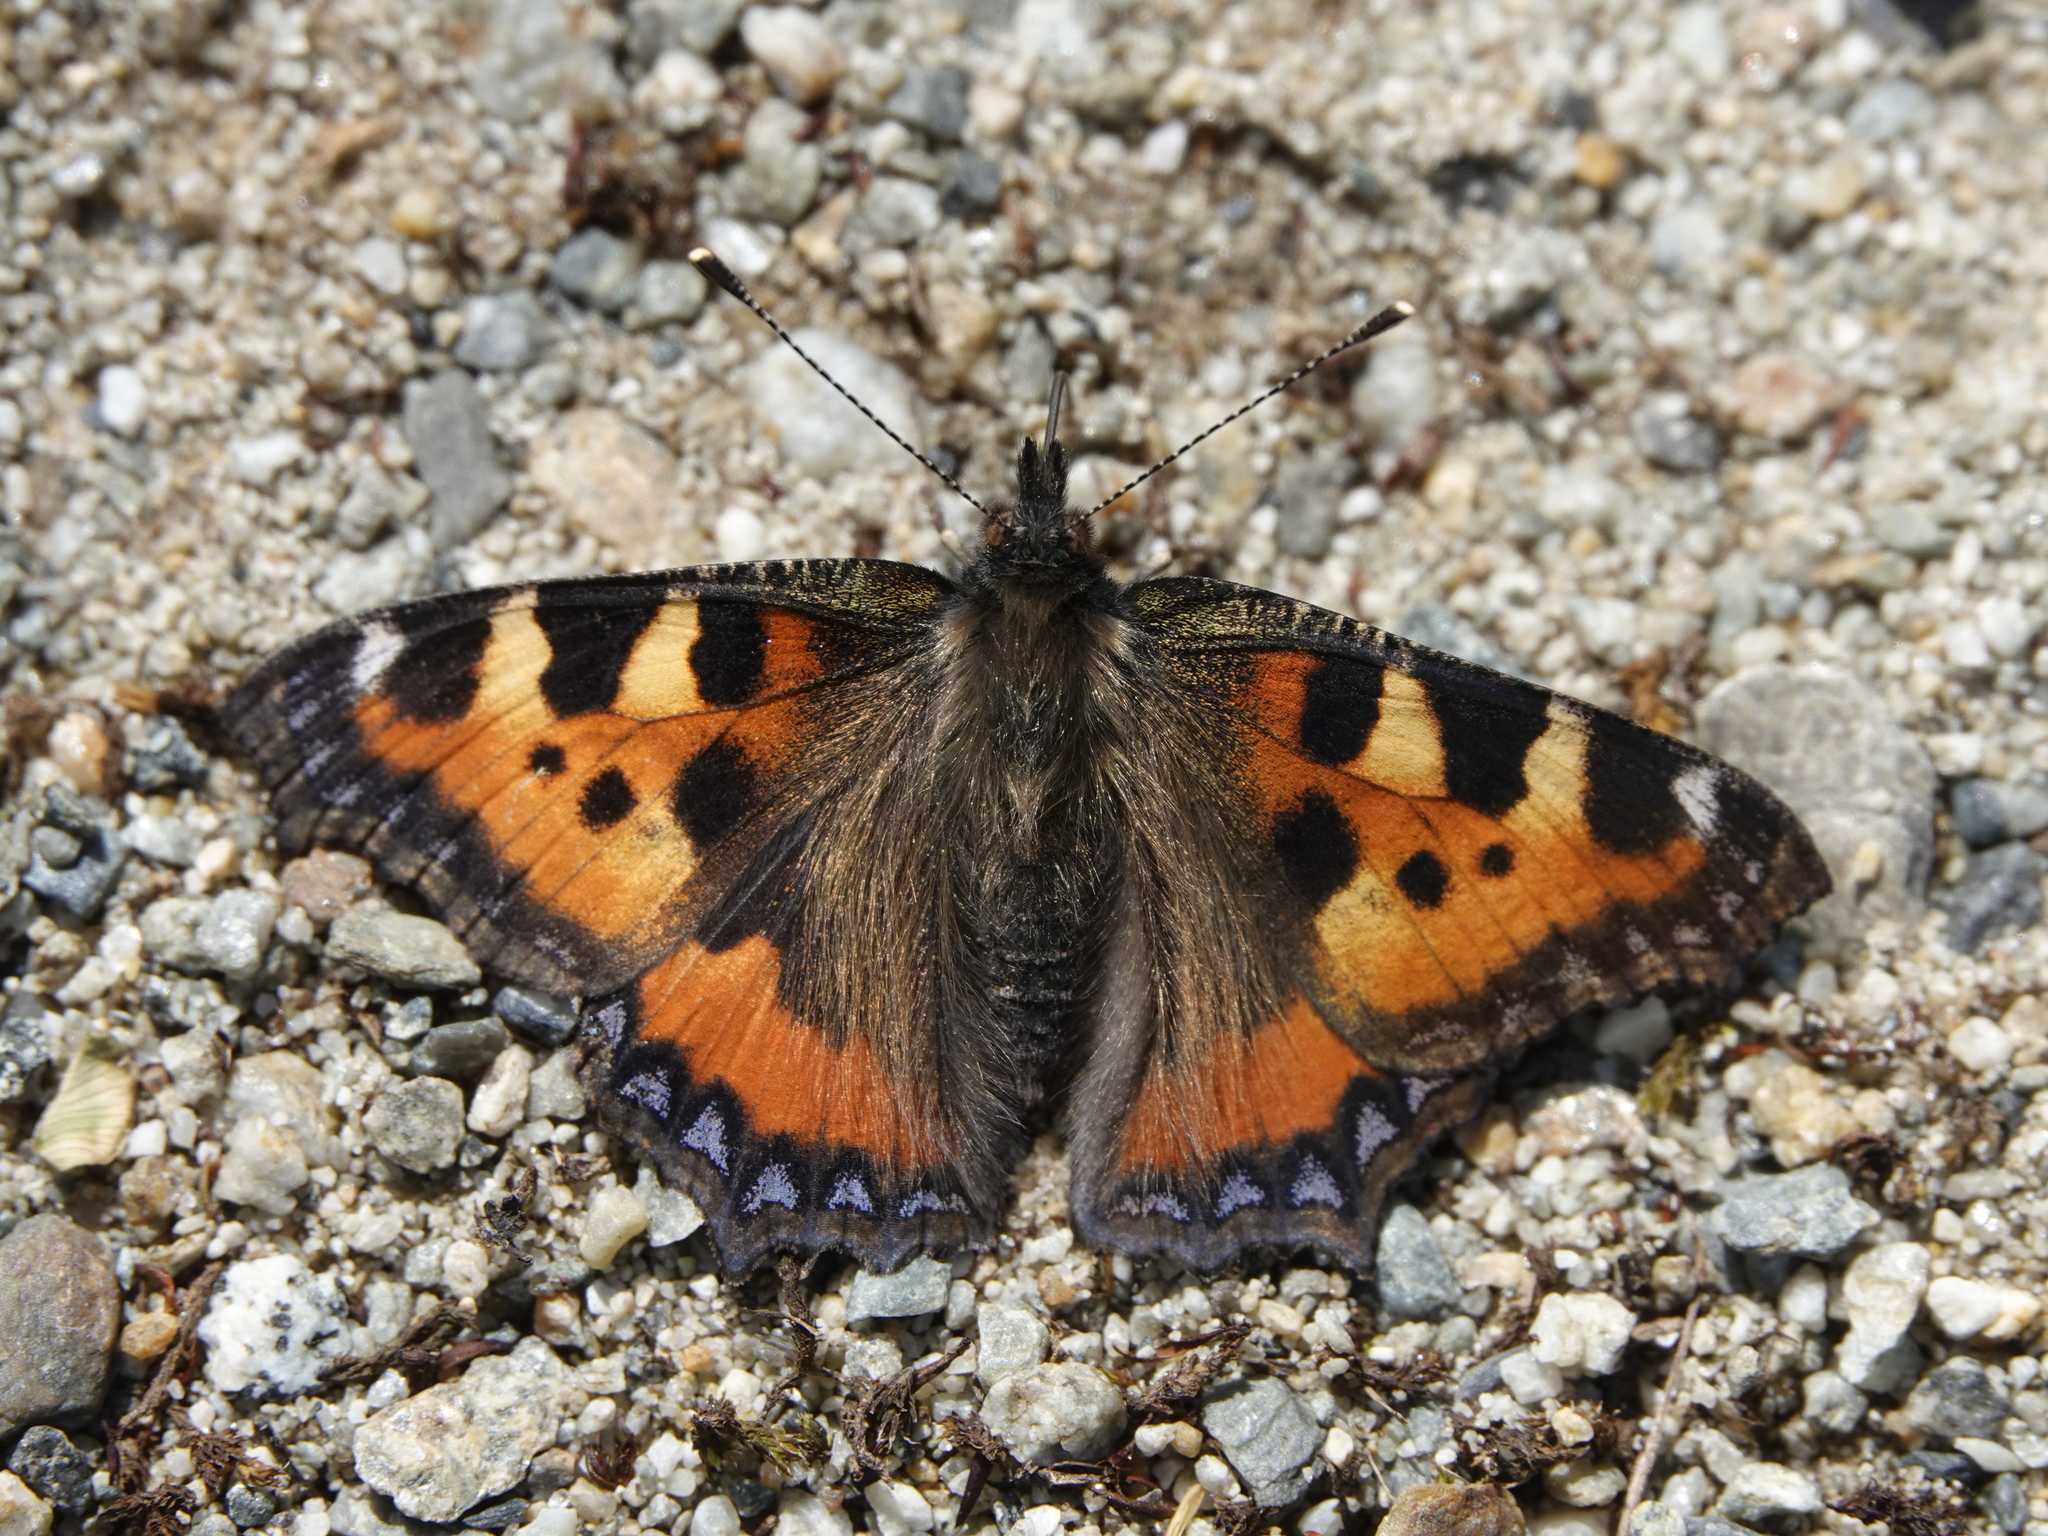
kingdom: Animalia
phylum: Arthropoda
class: Insecta
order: Lepidoptera
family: Nymphalidae
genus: Aglais
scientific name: Aglais urticae
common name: Small tortoiseshell
